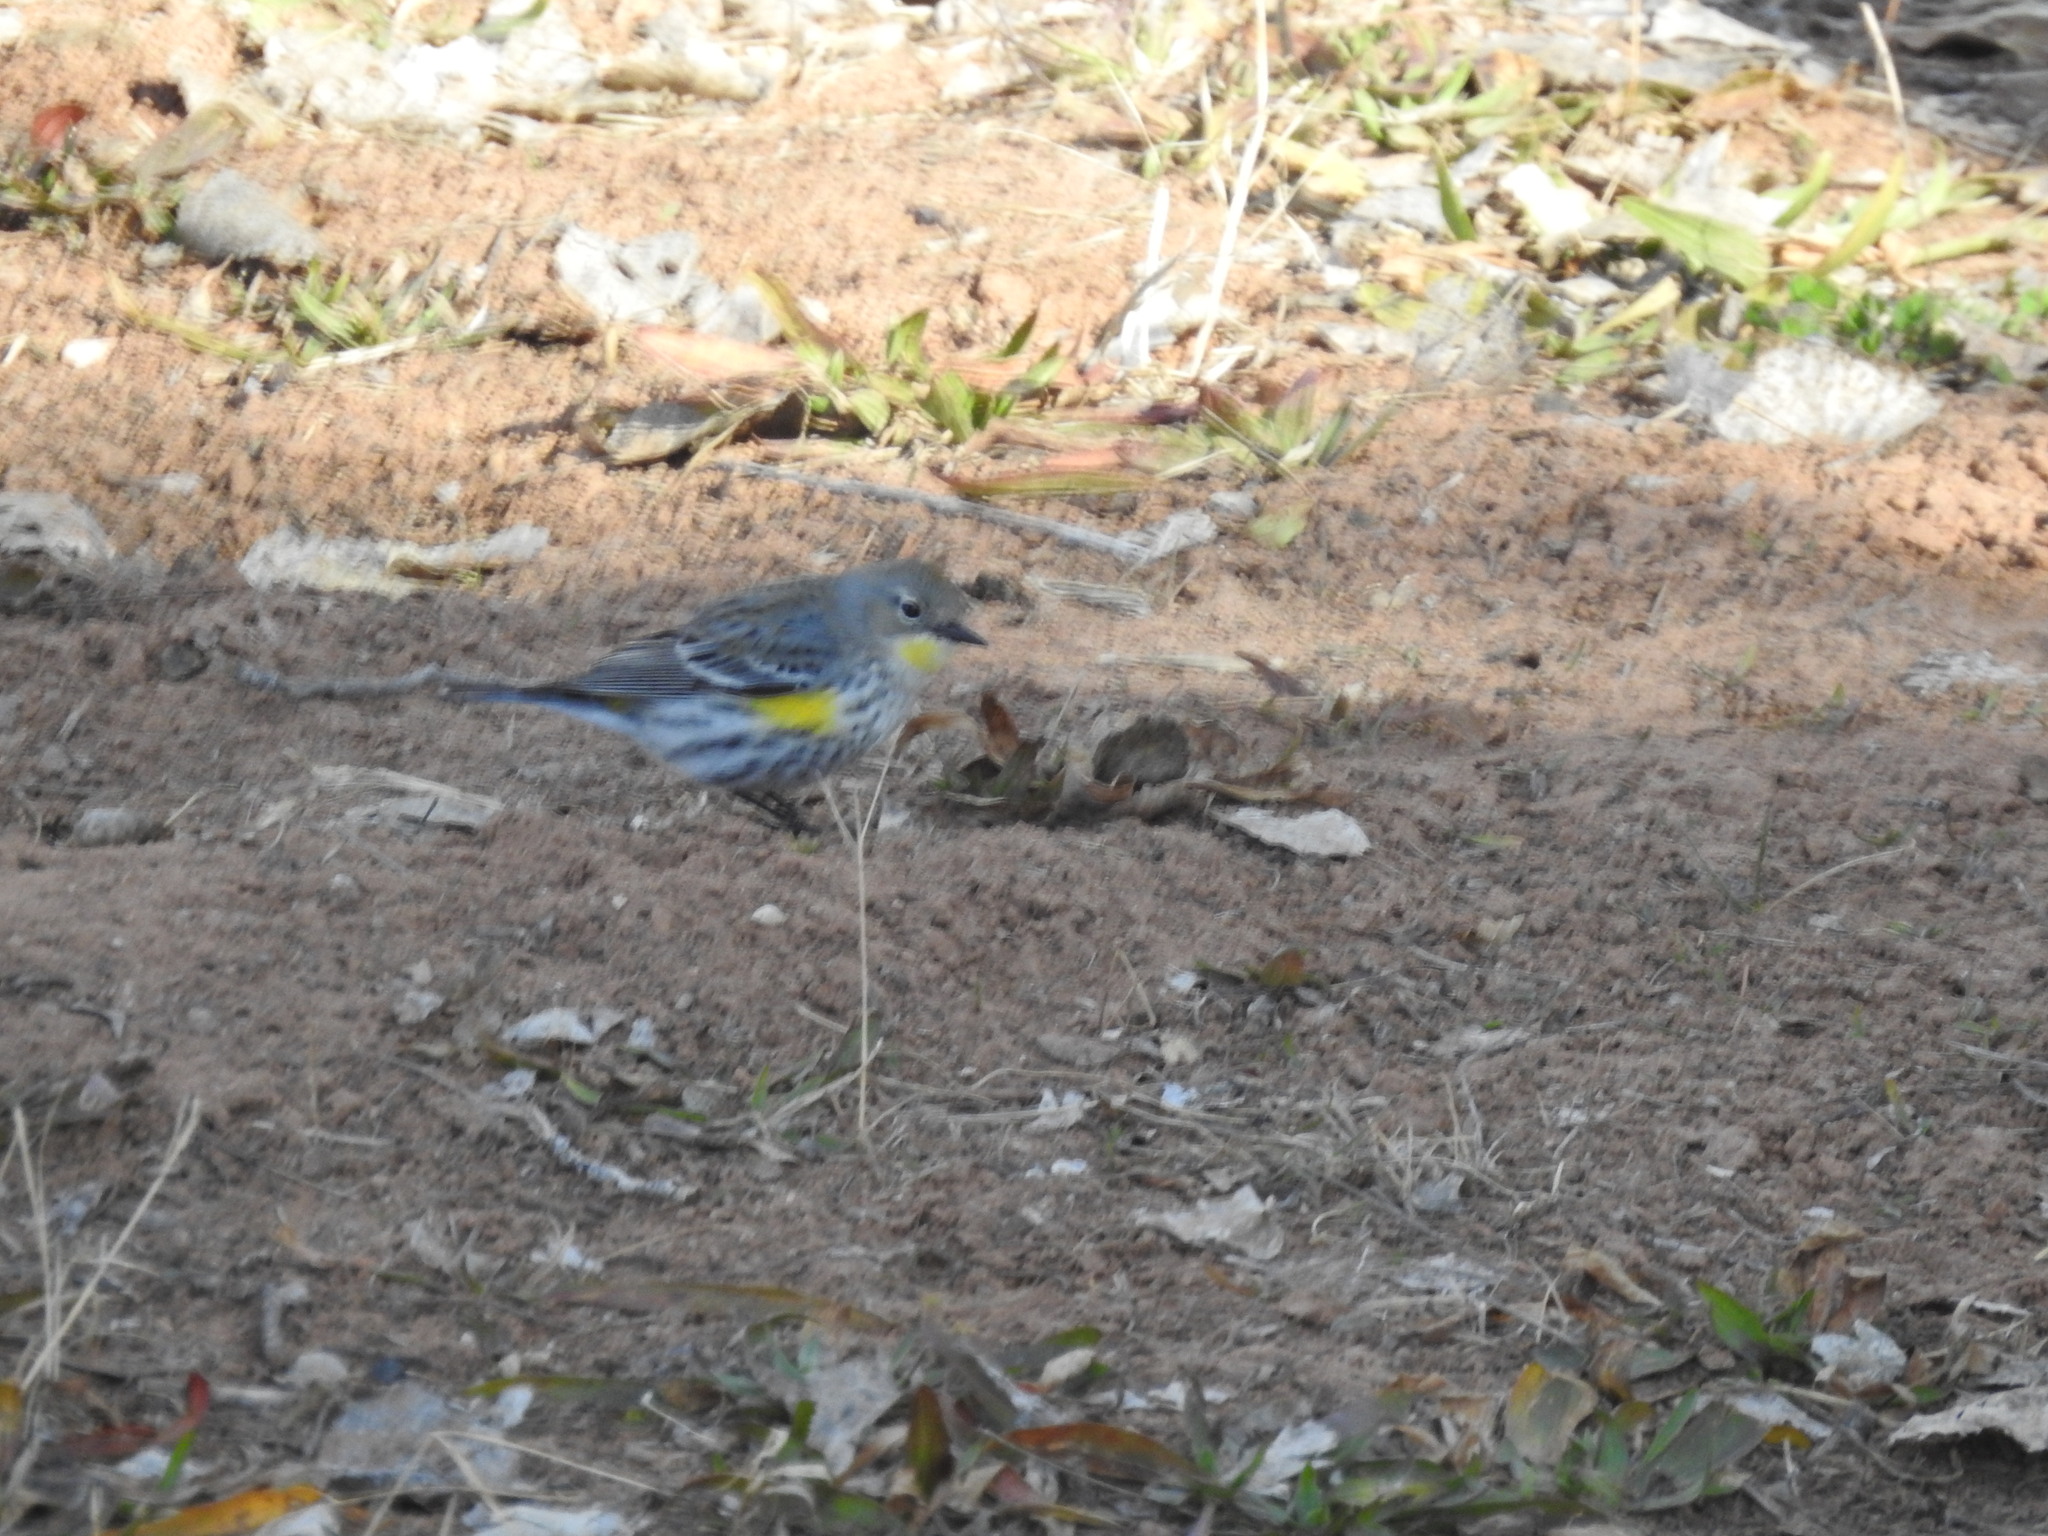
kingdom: Animalia
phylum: Chordata
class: Aves
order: Passeriformes
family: Parulidae
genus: Setophaga
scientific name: Setophaga coronata
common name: Myrtle warbler
